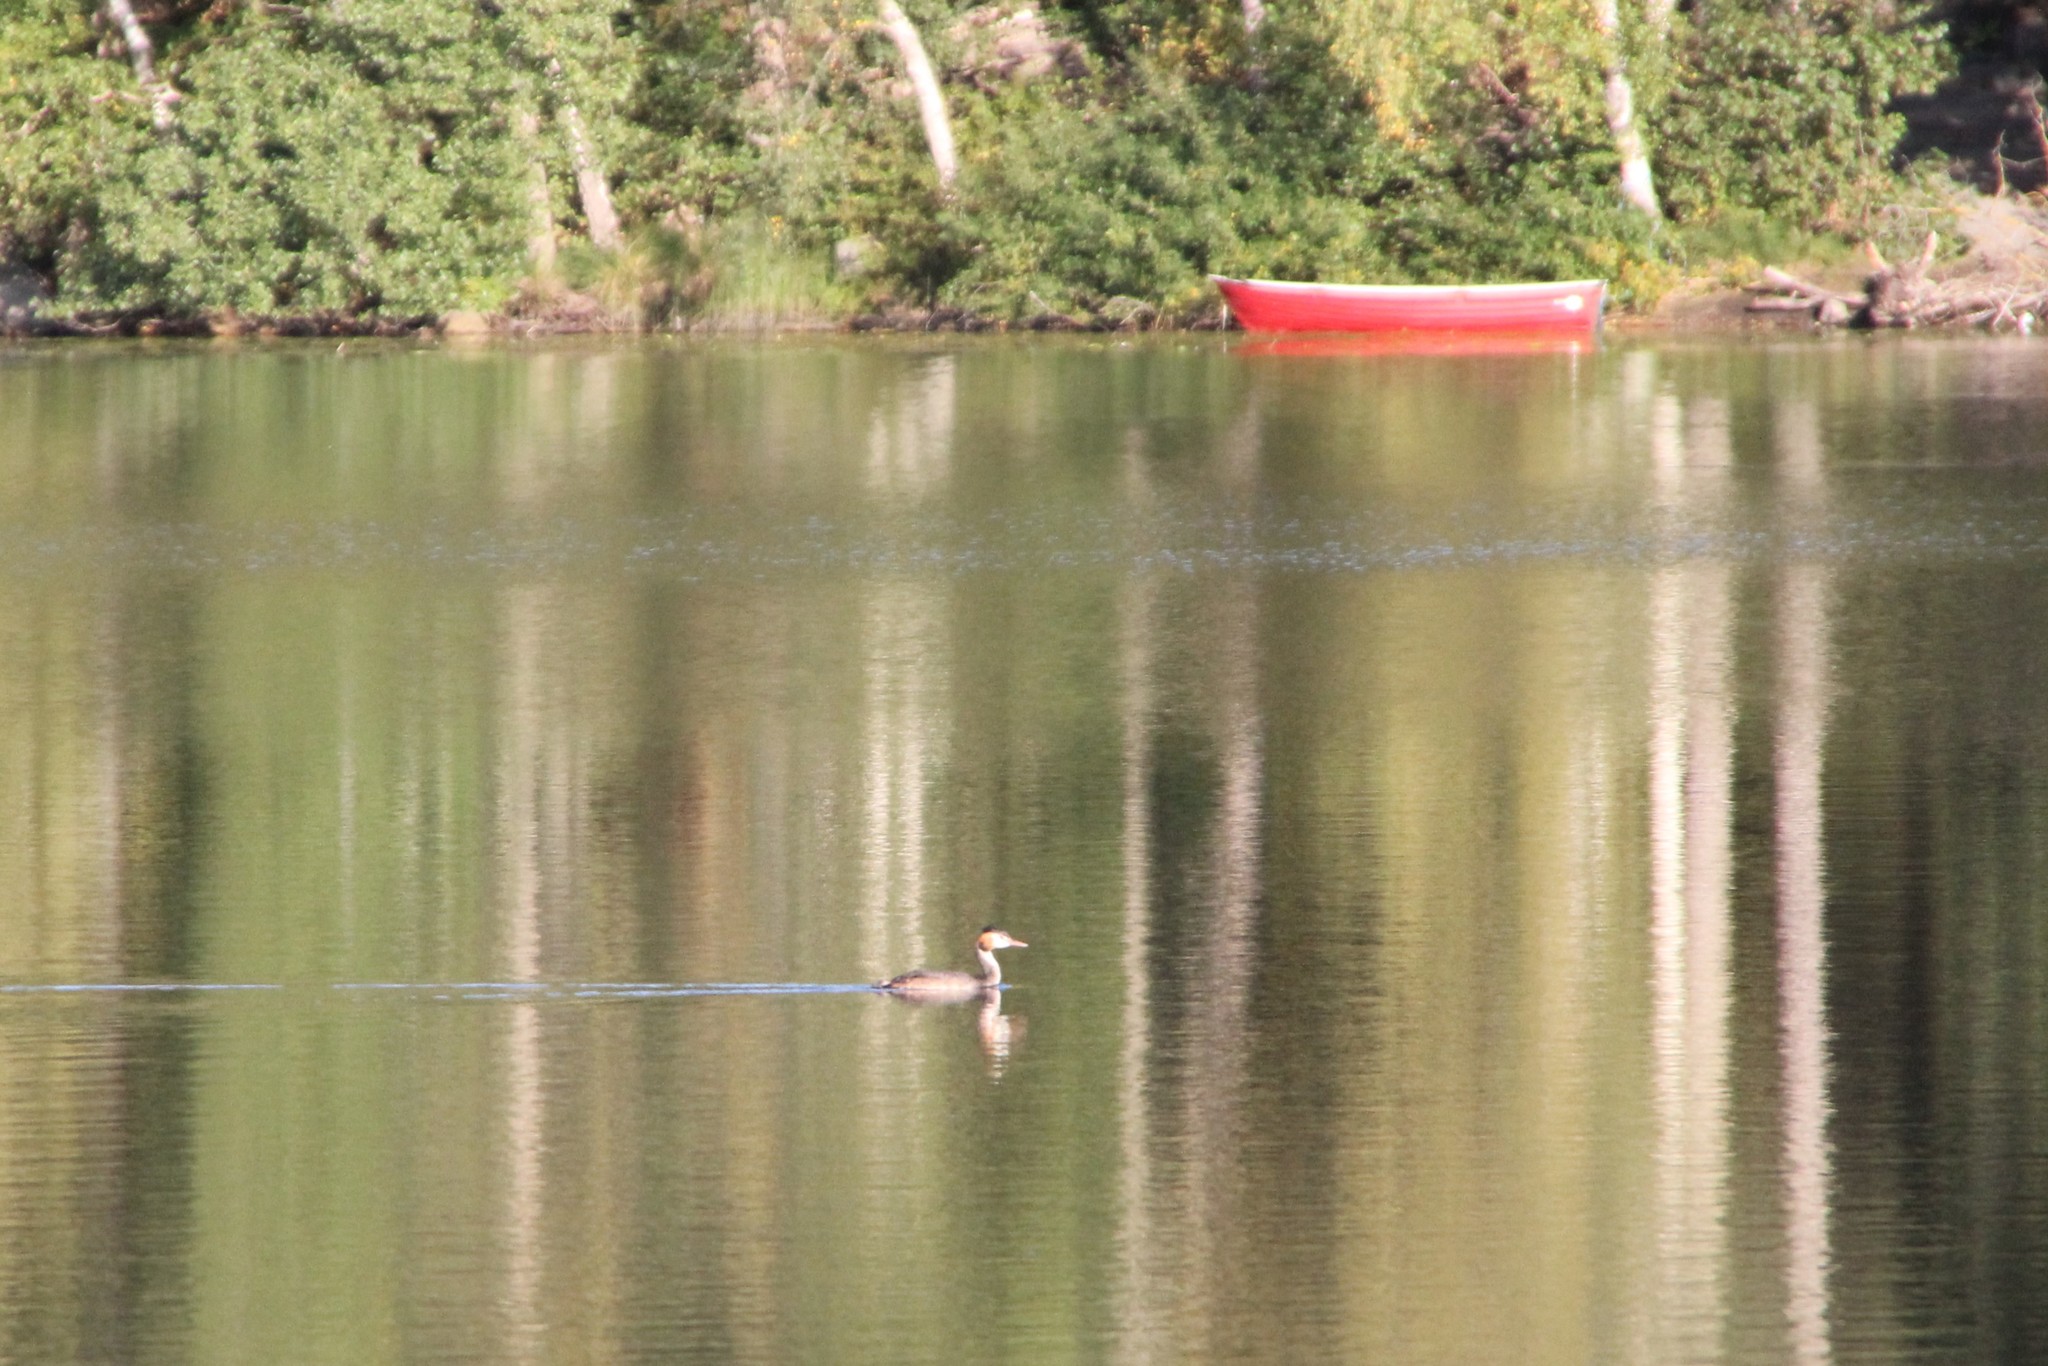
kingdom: Animalia
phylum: Chordata
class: Aves
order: Podicipediformes
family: Podicipedidae
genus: Podiceps
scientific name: Podiceps cristatus
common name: Great crested grebe
